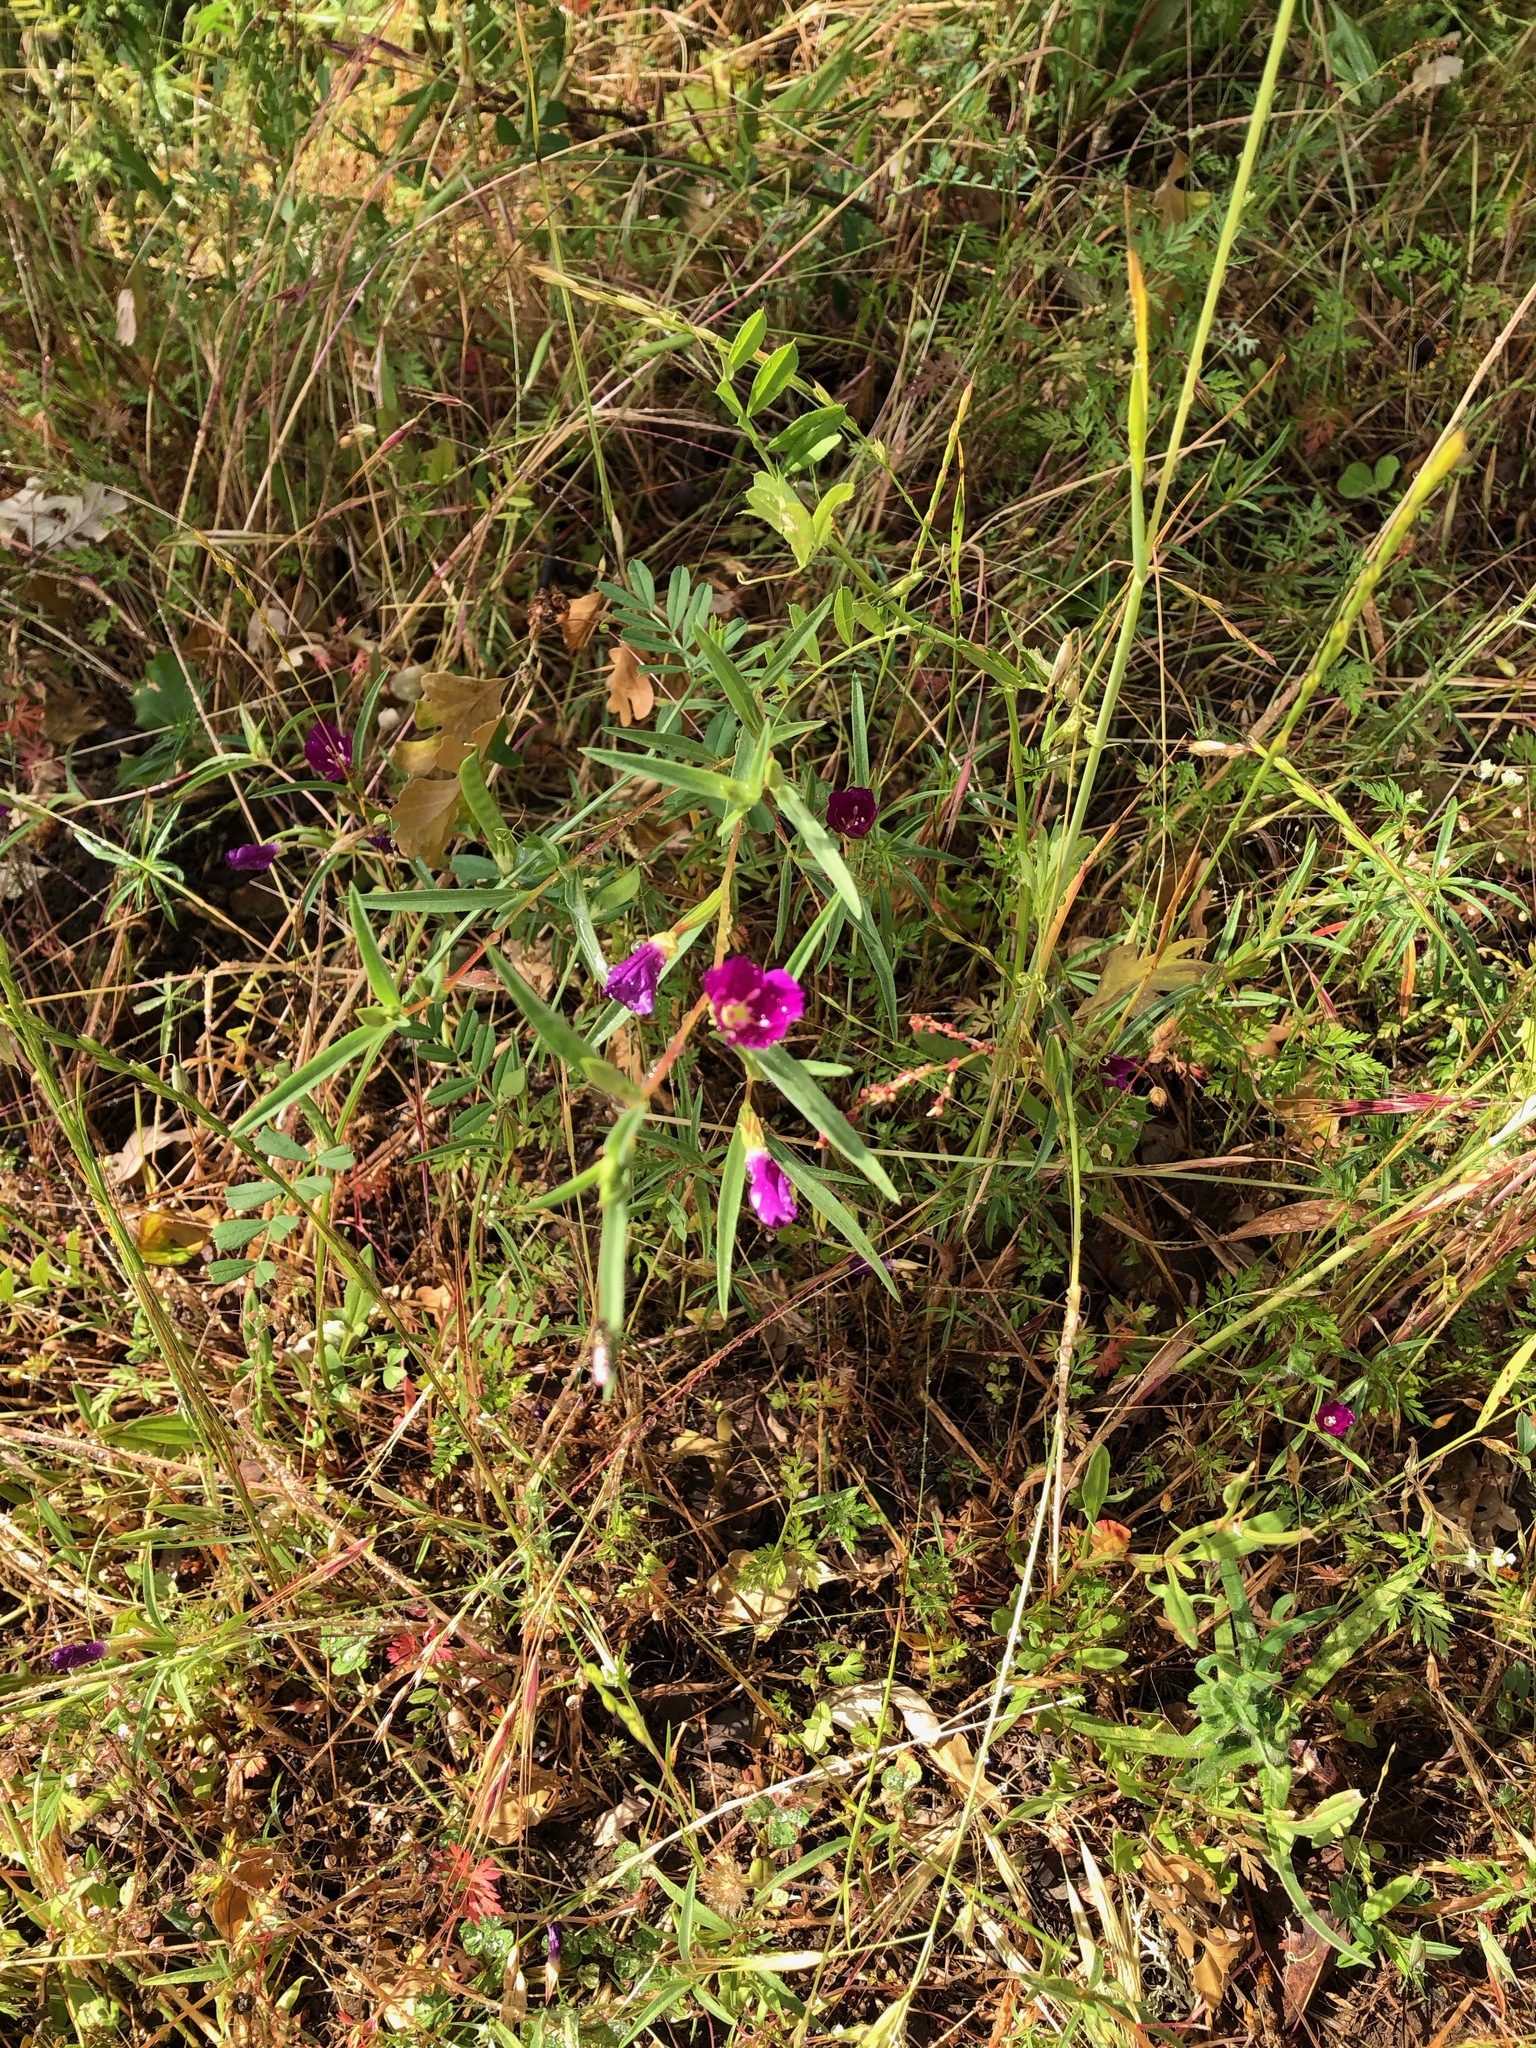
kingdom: Plantae
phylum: Tracheophyta
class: Magnoliopsida
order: Myrtales
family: Onagraceae
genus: Clarkia
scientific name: Clarkia purpurea
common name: Purple clarkia
